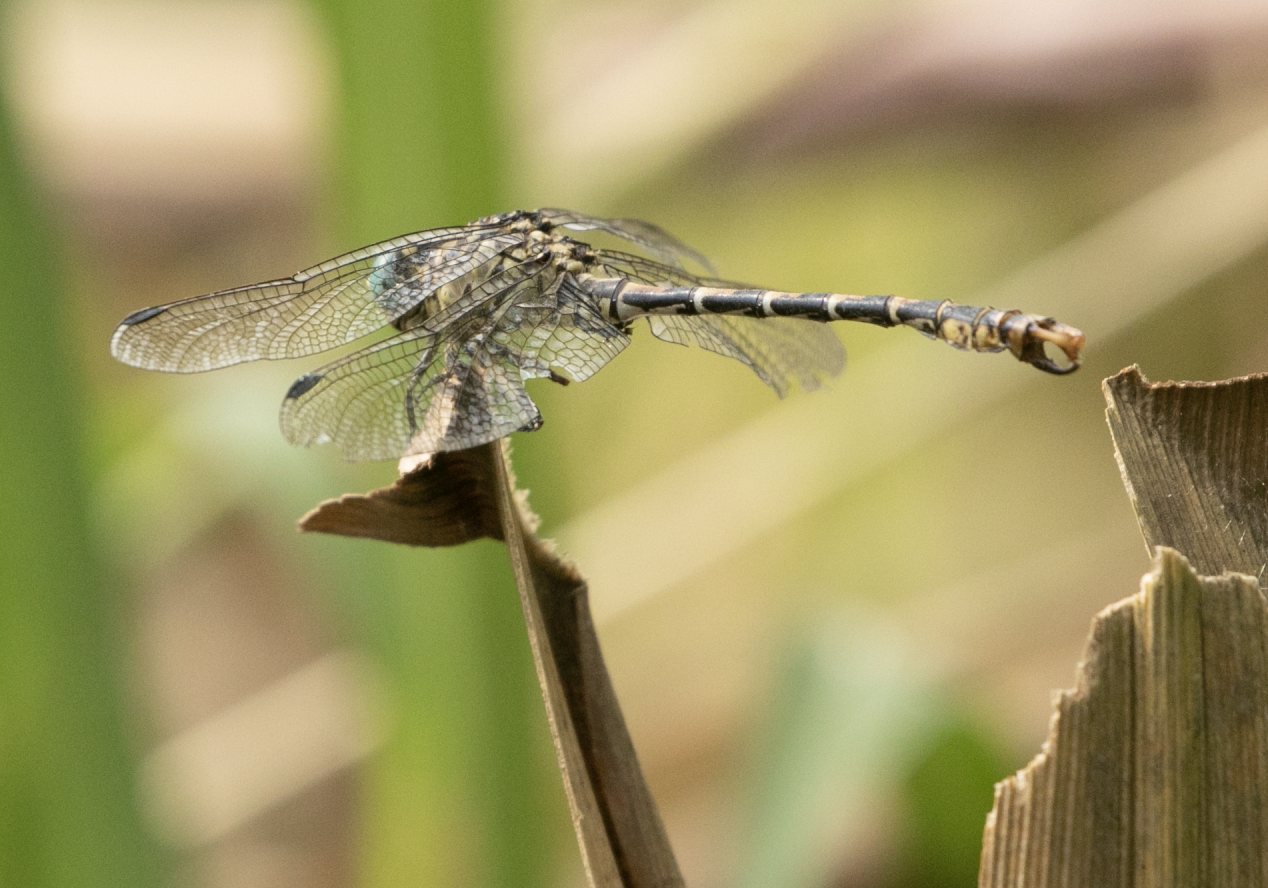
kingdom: Animalia
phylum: Arthropoda
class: Insecta
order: Odonata
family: Gomphidae
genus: Onychogomphus
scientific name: Onychogomphus forcipatus
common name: Small pincertail
